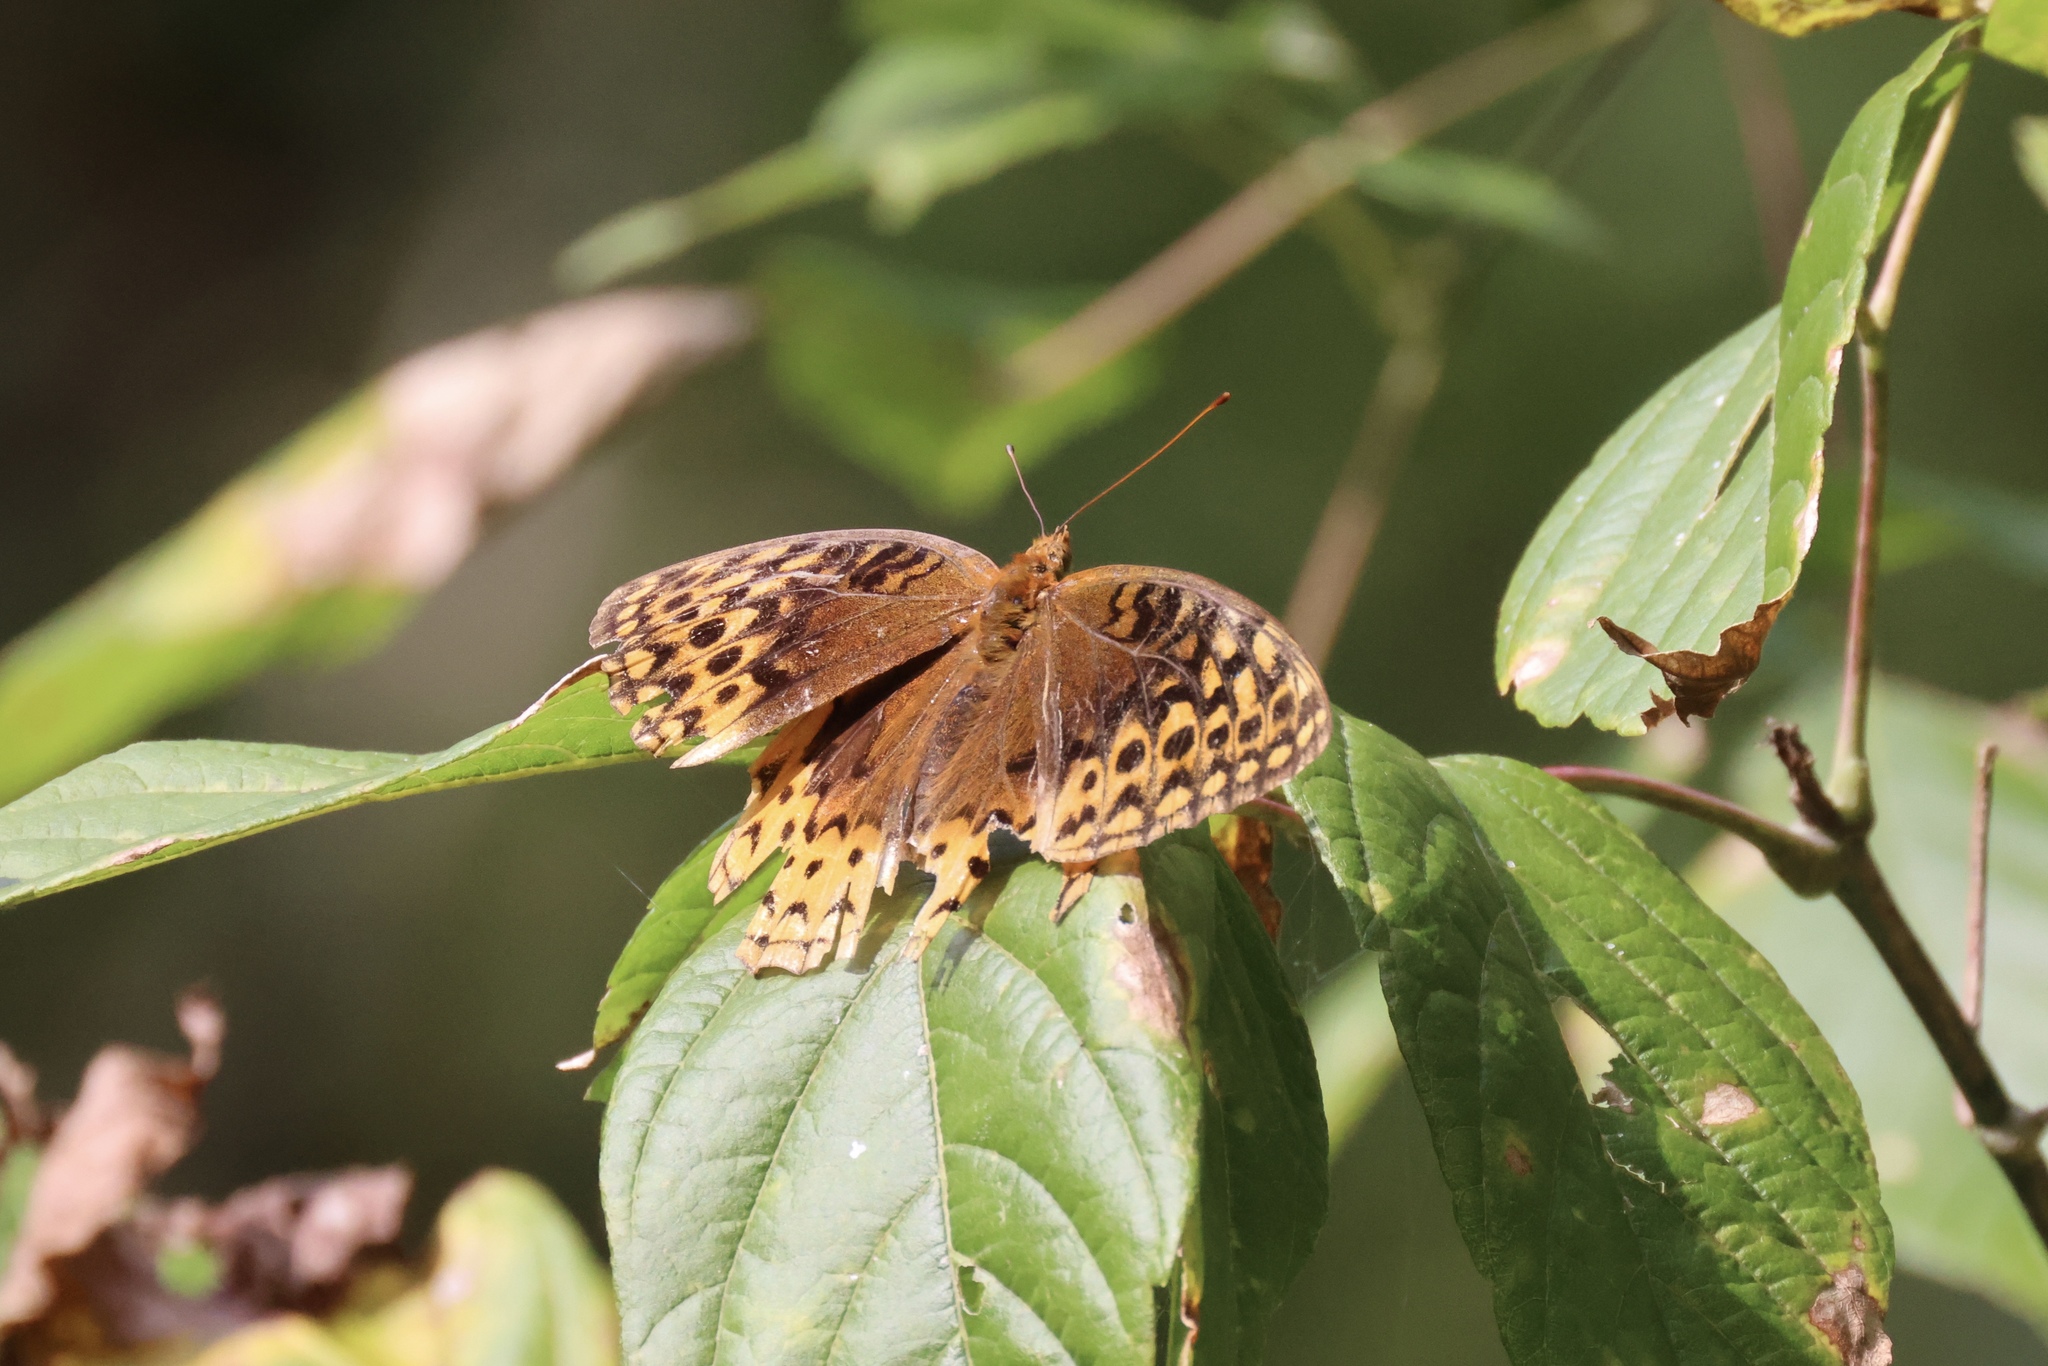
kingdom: Animalia
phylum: Arthropoda
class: Insecta
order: Lepidoptera
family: Nymphalidae
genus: Speyeria
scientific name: Speyeria cybele
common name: Great spangled fritillary
